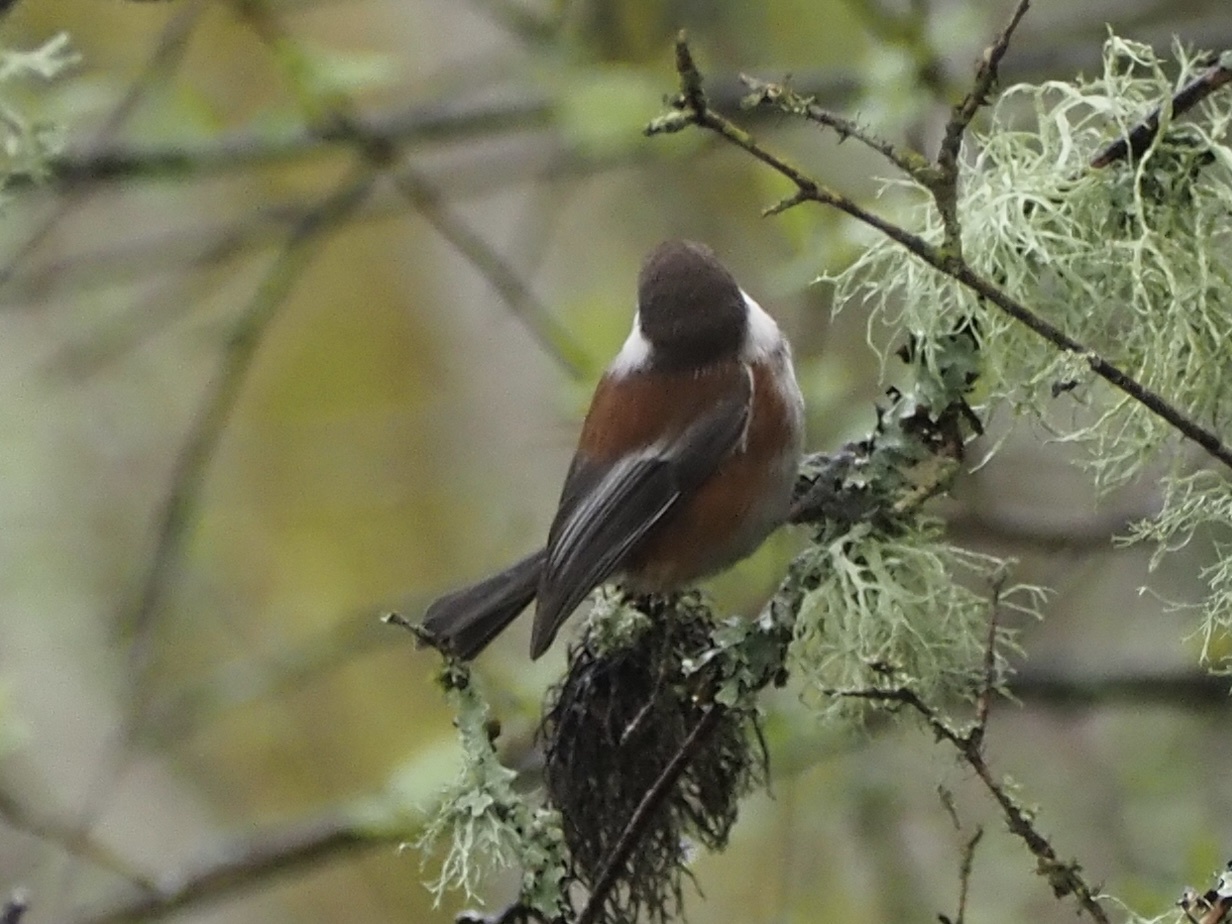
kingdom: Animalia
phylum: Chordata
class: Aves
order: Passeriformes
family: Paridae
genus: Poecile
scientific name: Poecile rufescens
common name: Chestnut-backed chickadee
